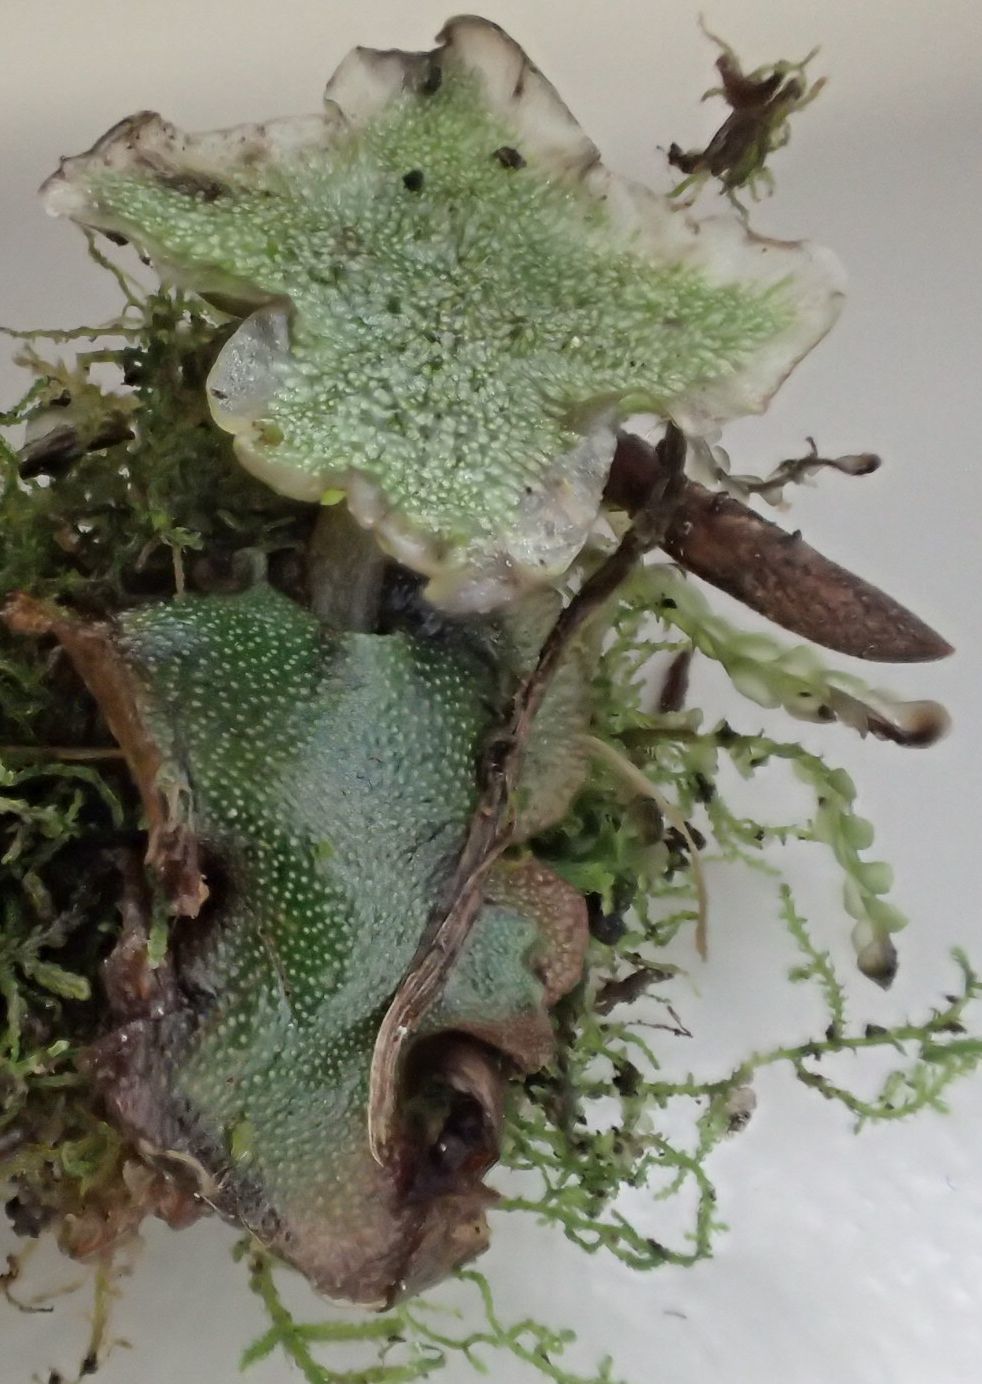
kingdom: Plantae
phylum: Marchantiophyta
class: Marchantiopsida
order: Marchantiales
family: Marchantiaceae
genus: Marchantia
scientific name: Marchantia foliacea
